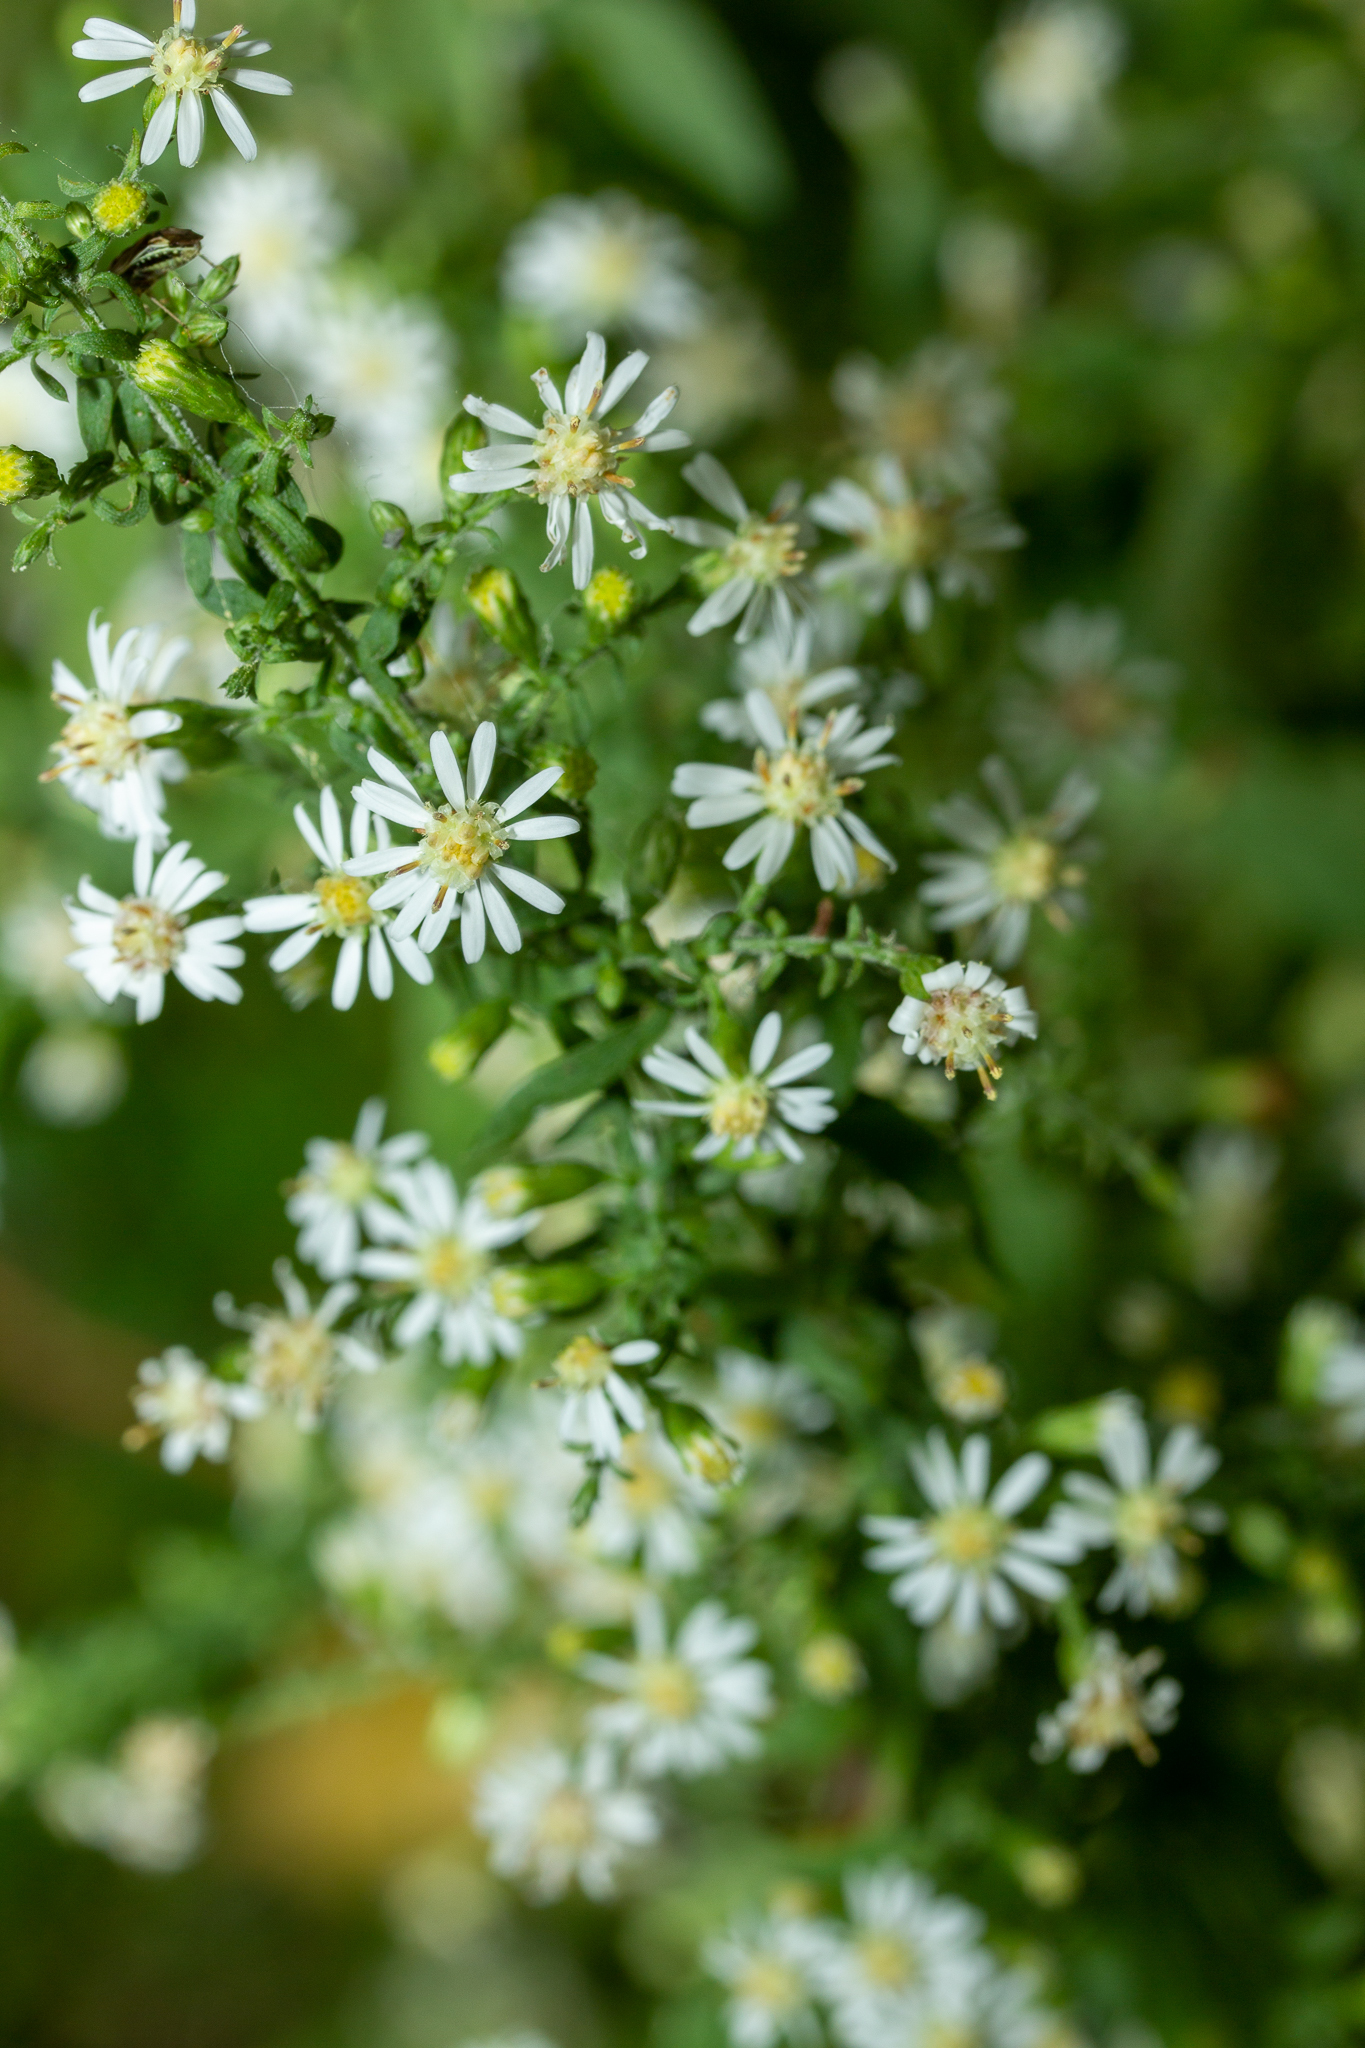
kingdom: Plantae
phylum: Tracheophyta
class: Magnoliopsida
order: Asterales
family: Asteraceae
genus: Symphyotrichum
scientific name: Symphyotrichum lateriflorum
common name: Calico aster
